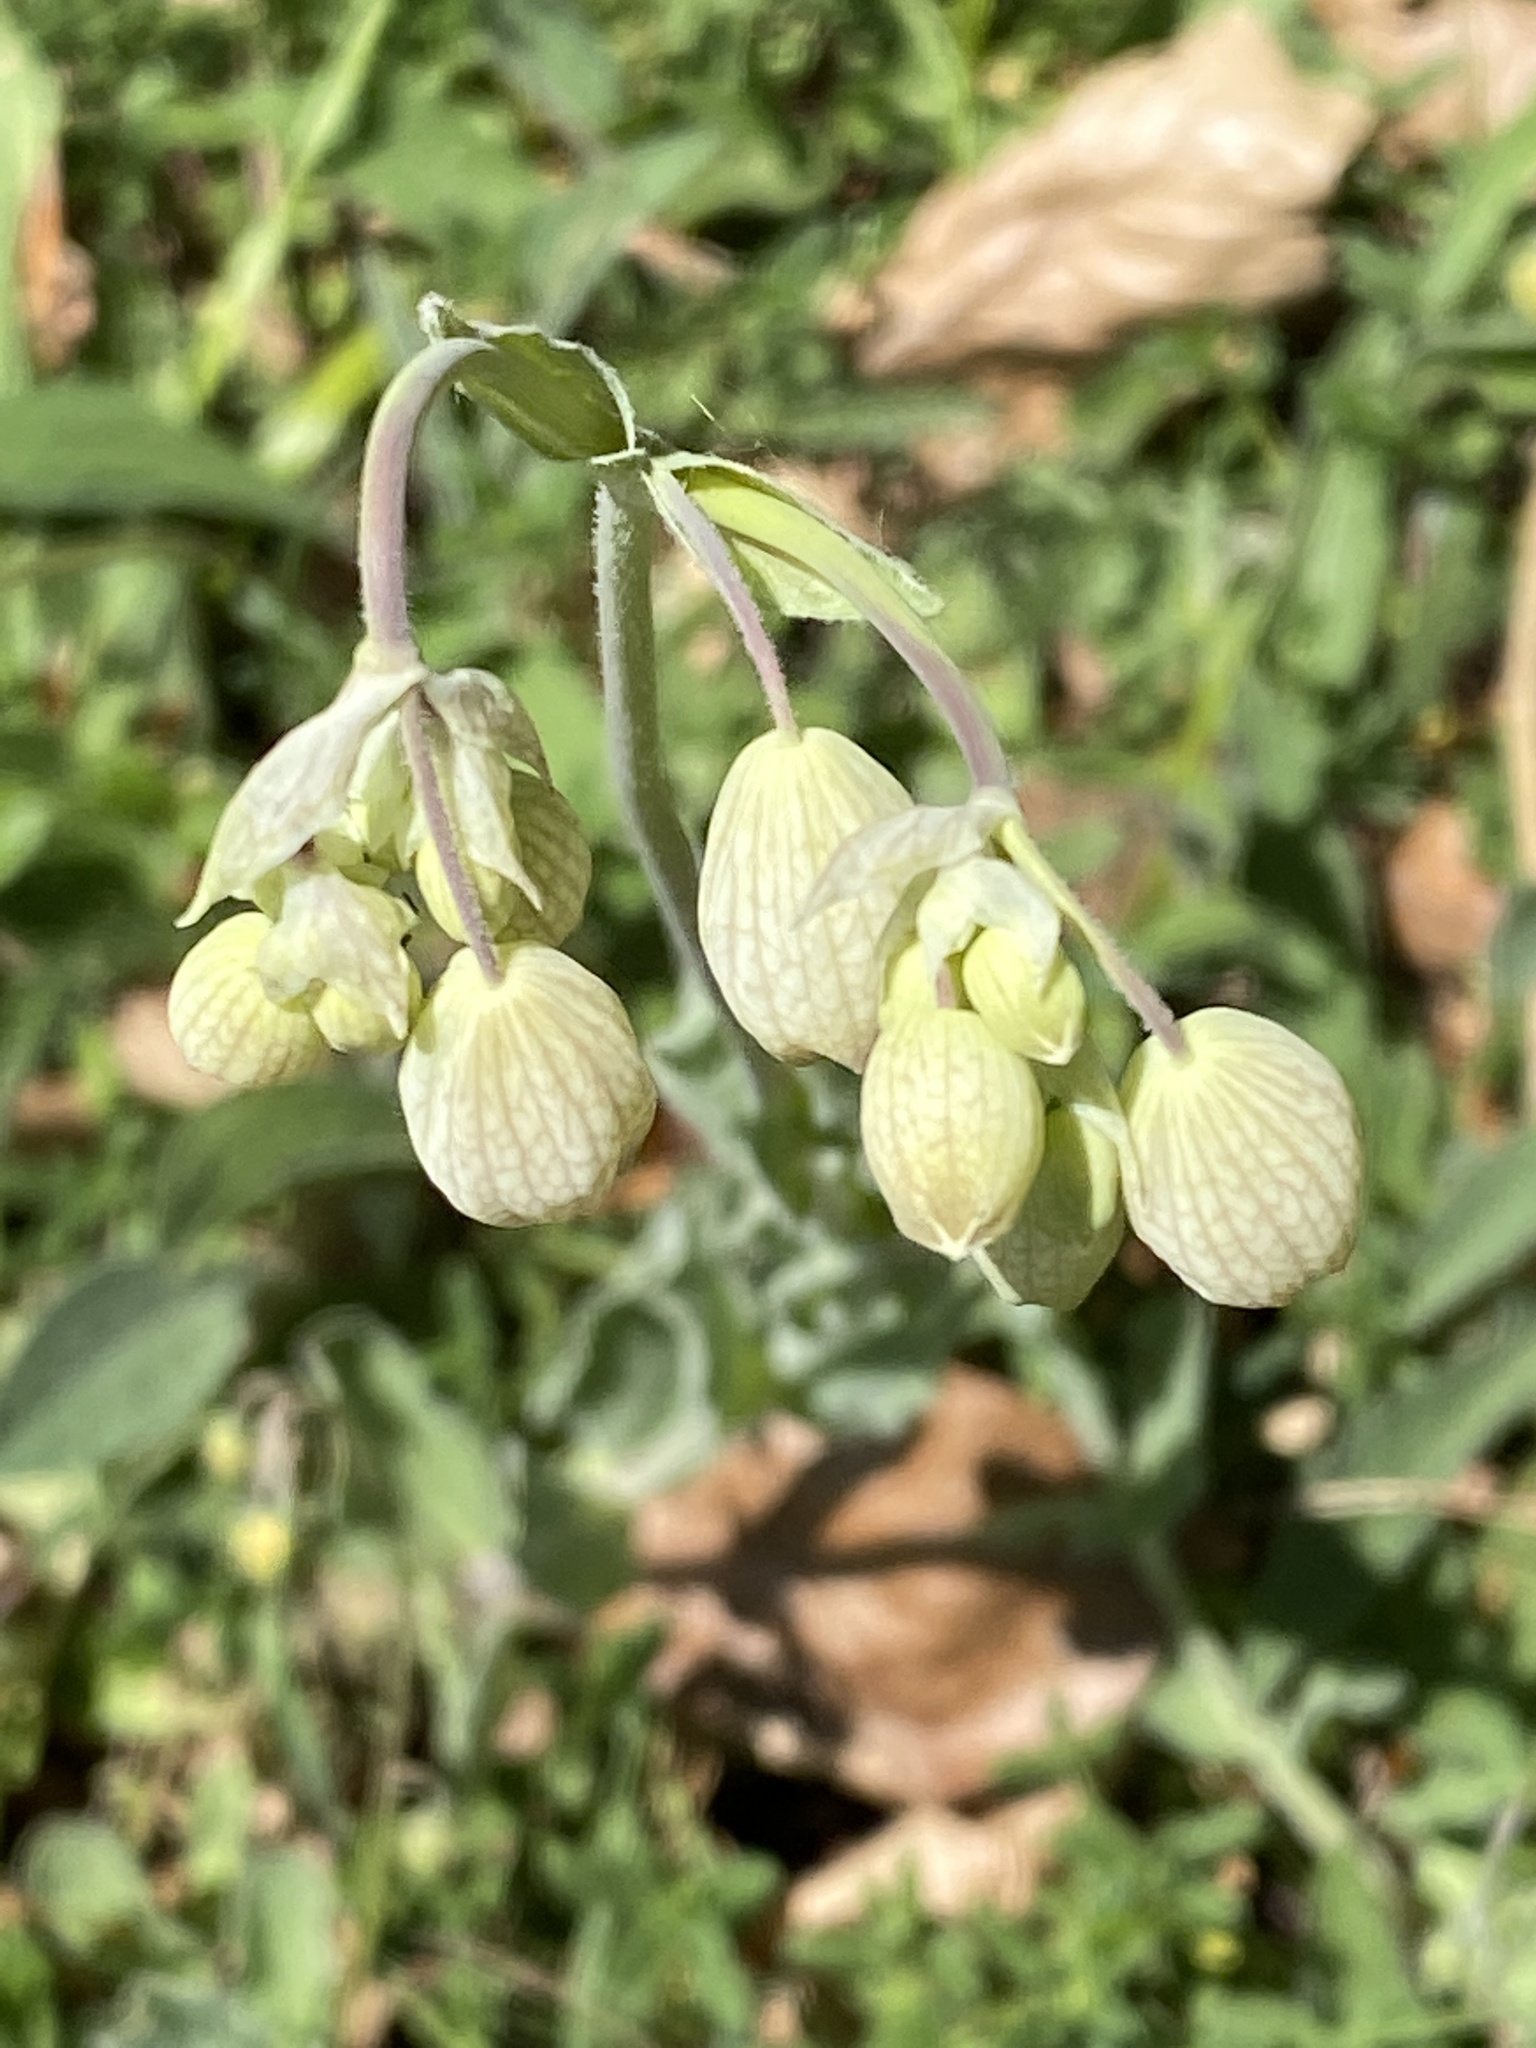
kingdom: Plantae
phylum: Tracheophyta
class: Magnoliopsida
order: Caryophyllales
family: Caryophyllaceae
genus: Silene
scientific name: Silene vulgaris
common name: Bladder campion
